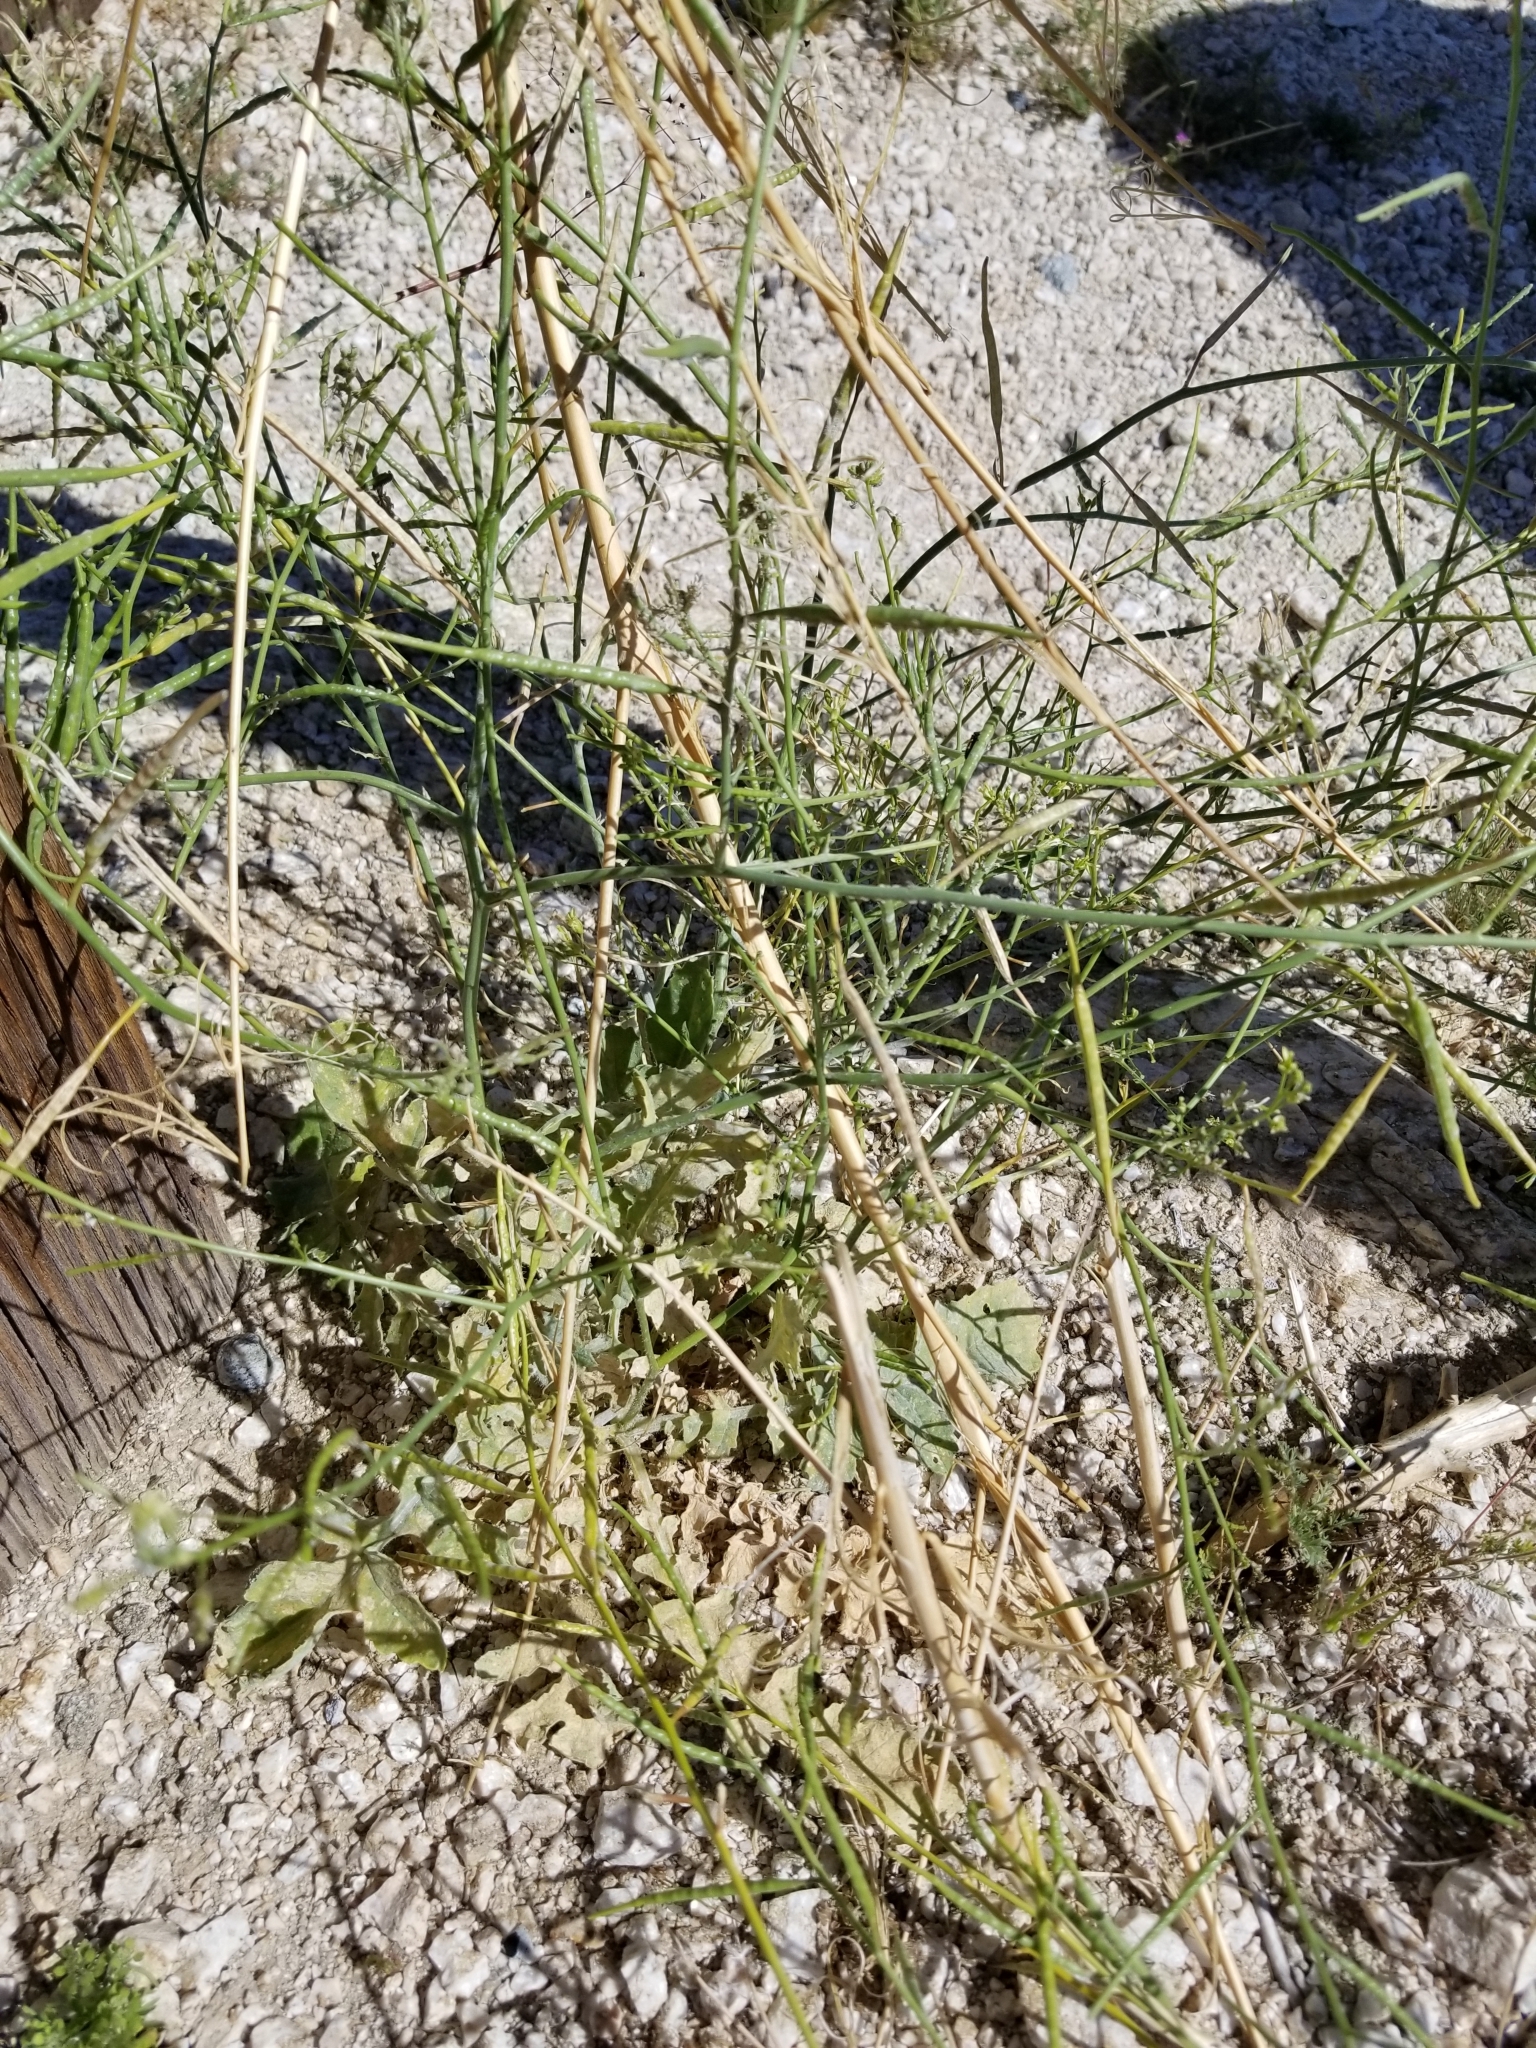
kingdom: Plantae
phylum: Tracheophyta
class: Magnoliopsida
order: Brassicales
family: Brassicaceae
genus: Brassica
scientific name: Brassica tournefortii
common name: Pale cabbage
